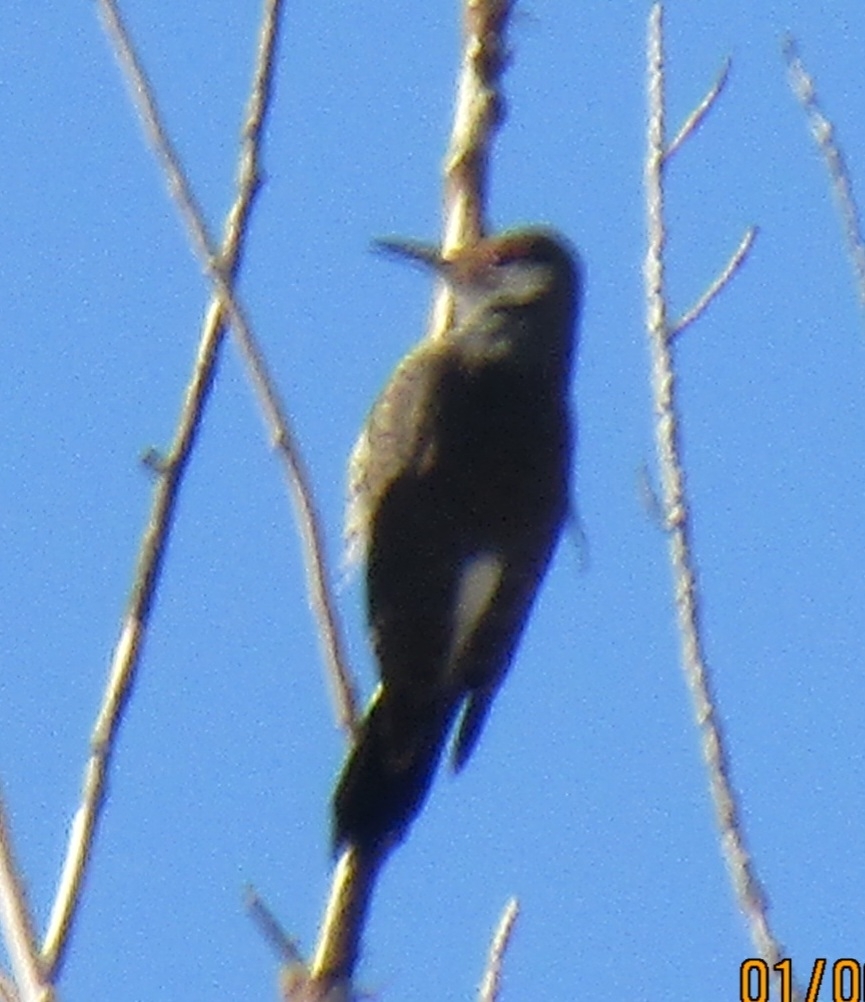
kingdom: Animalia
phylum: Chordata
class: Aves
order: Piciformes
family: Picidae
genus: Colaptes
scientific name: Colaptes auratus
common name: Northern flicker
